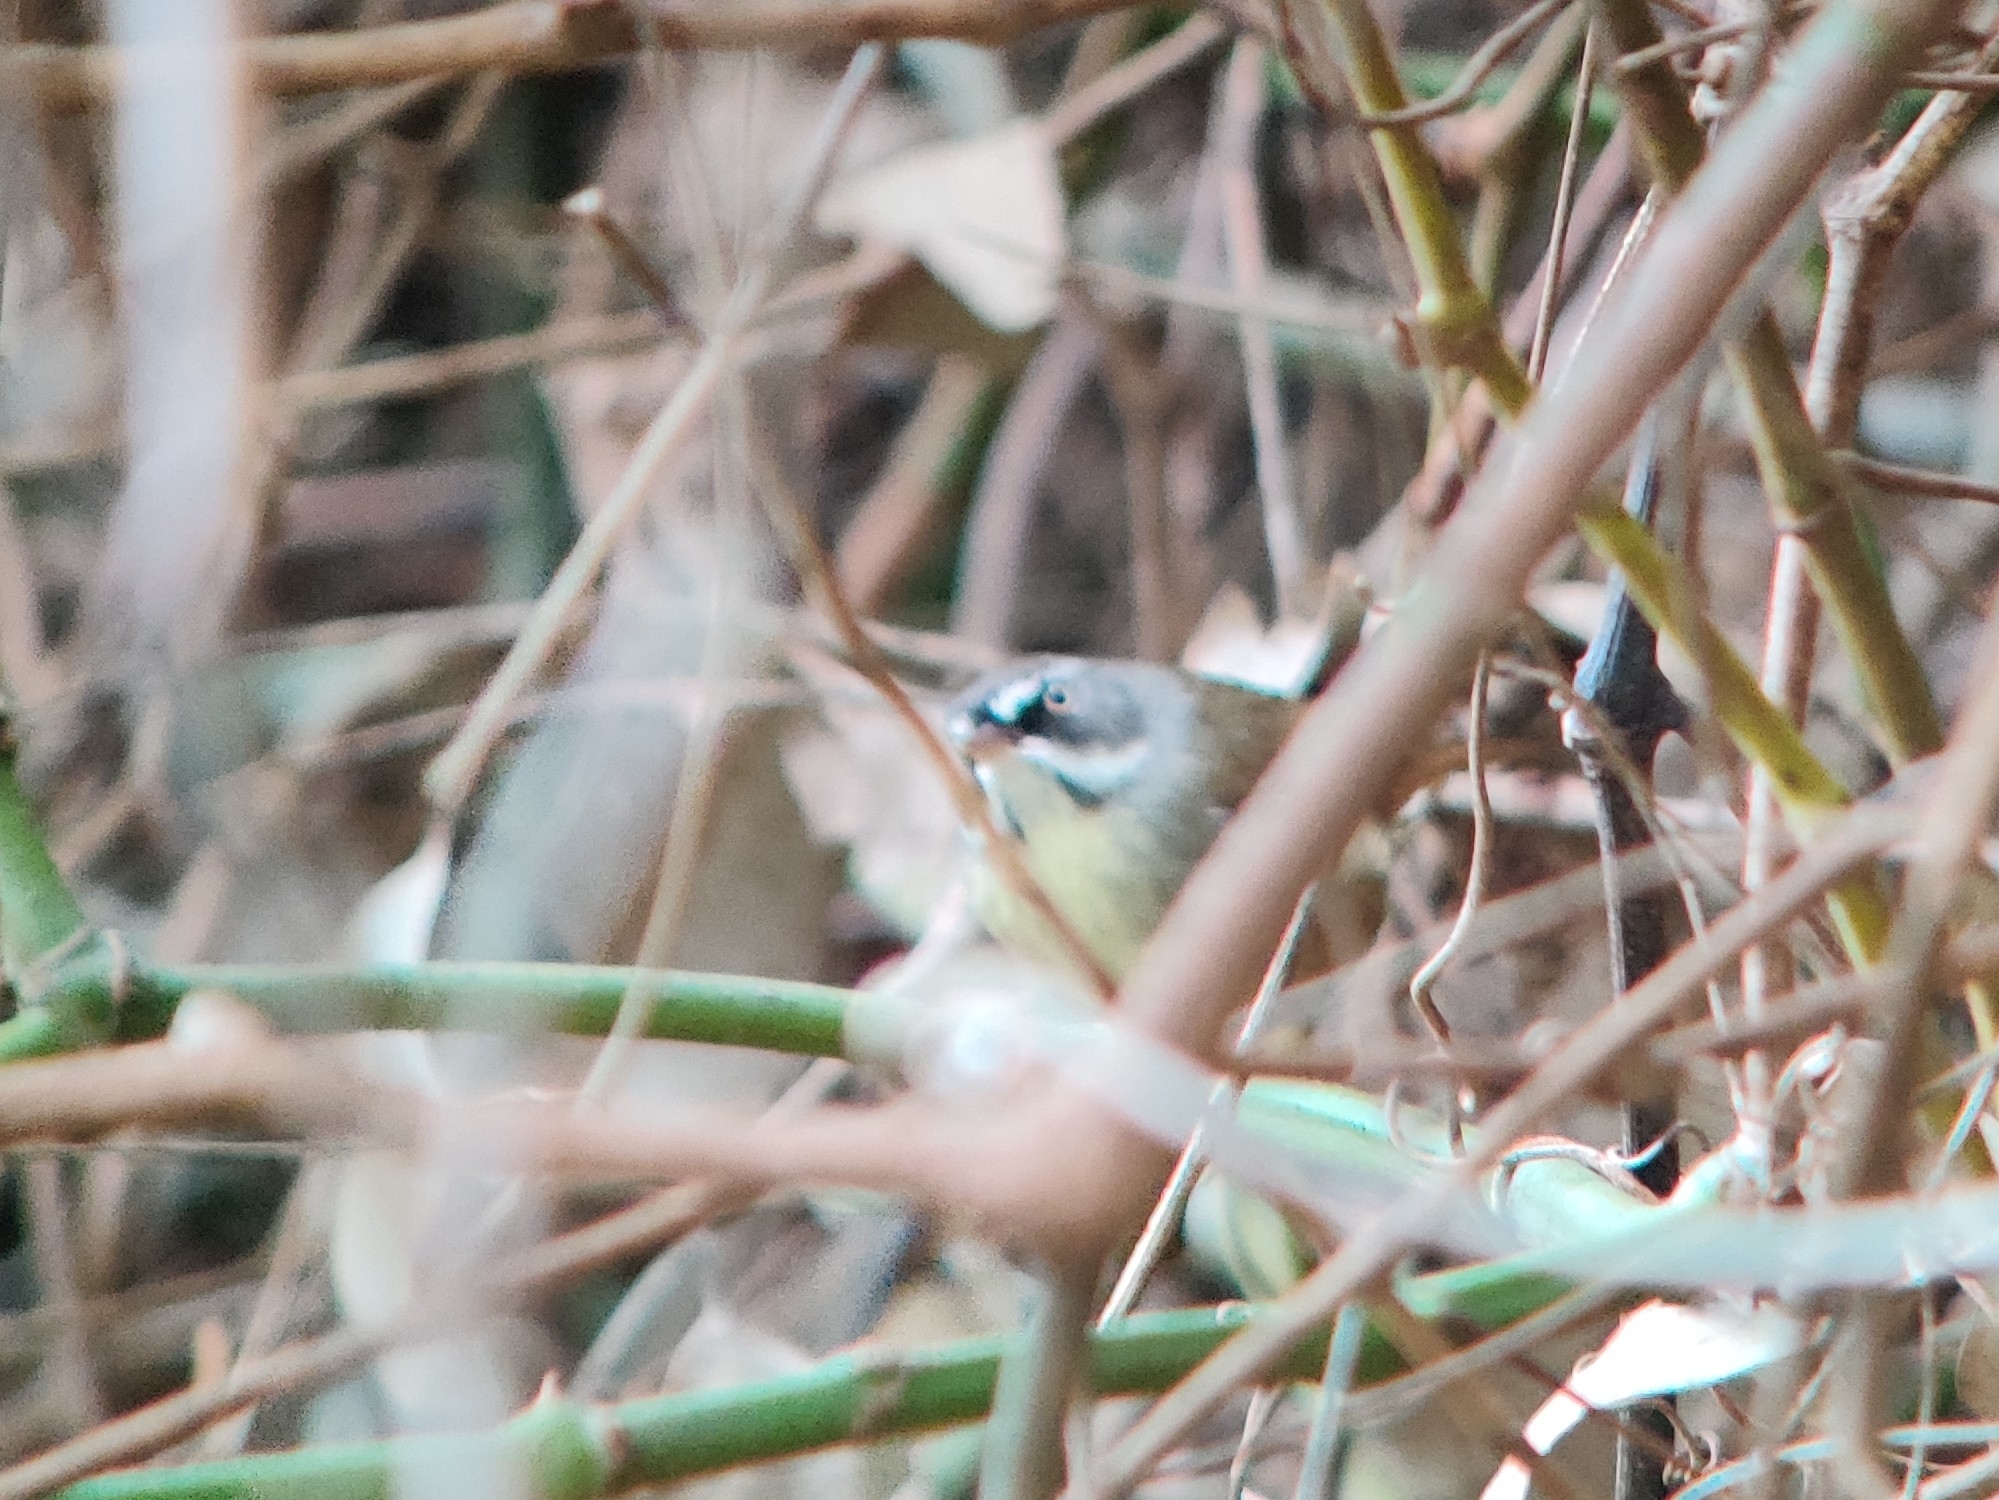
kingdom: Animalia
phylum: Chordata
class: Aves
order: Passeriformes
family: Acanthizidae
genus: Sericornis
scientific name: Sericornis frontalis
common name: White-browed scrubwren
